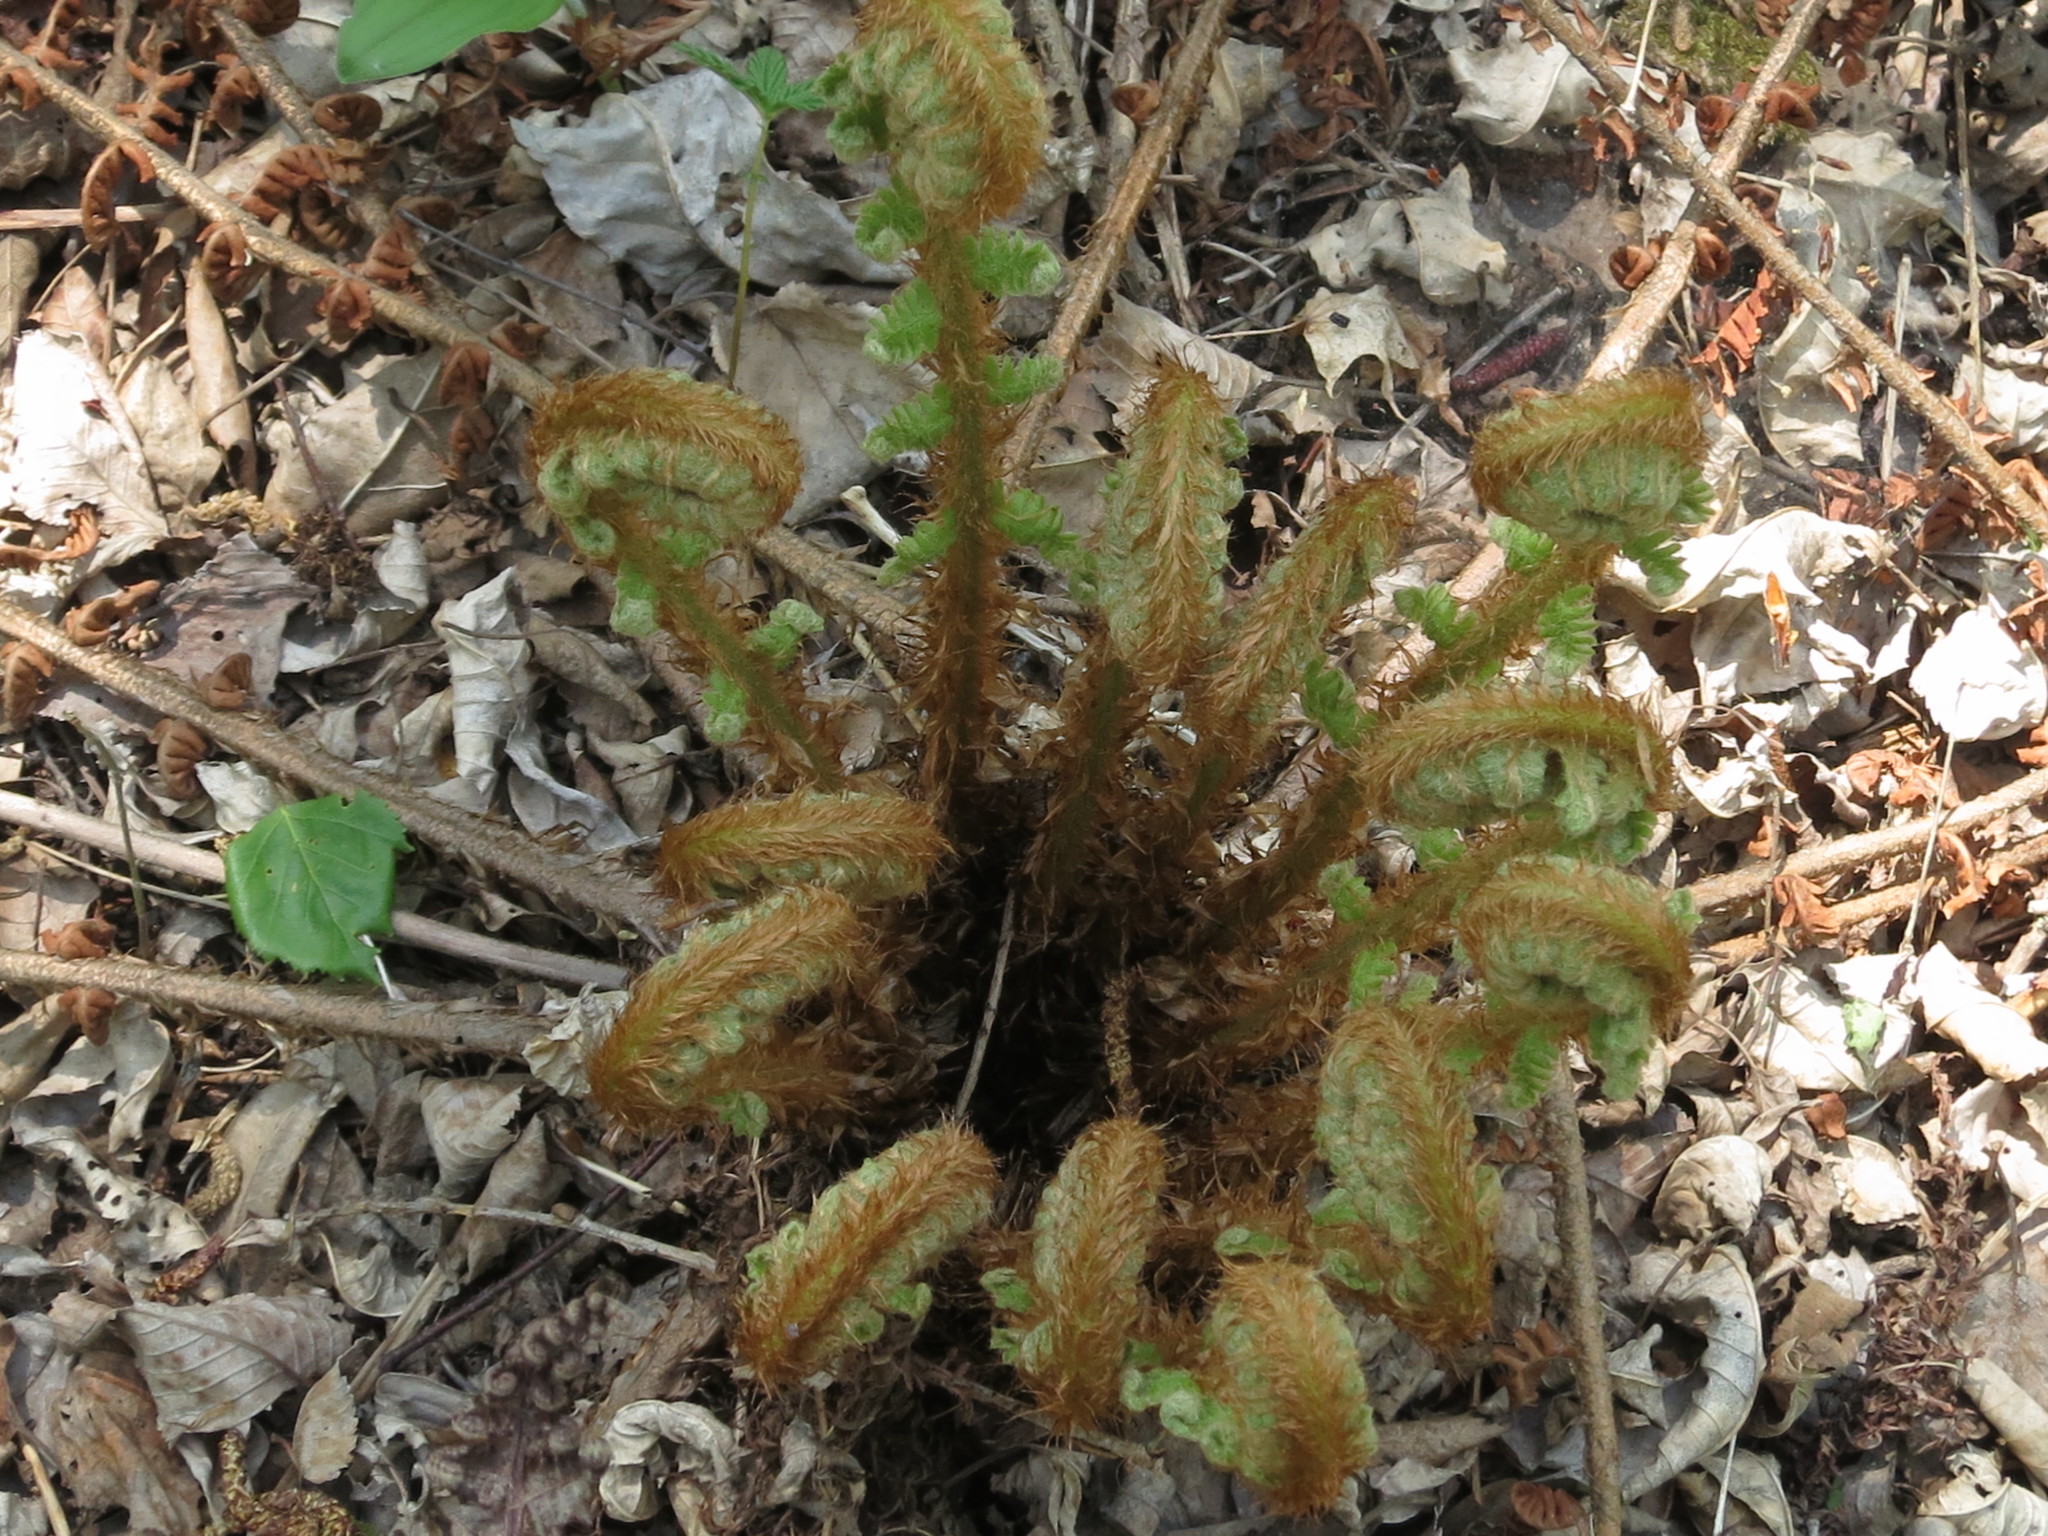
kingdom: Plantae
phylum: Tracheophyta
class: Polypodiopsida
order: Polypodiales
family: Dryopteridaceae
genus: Dryopteris
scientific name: Dryopteris crassirhizoma
